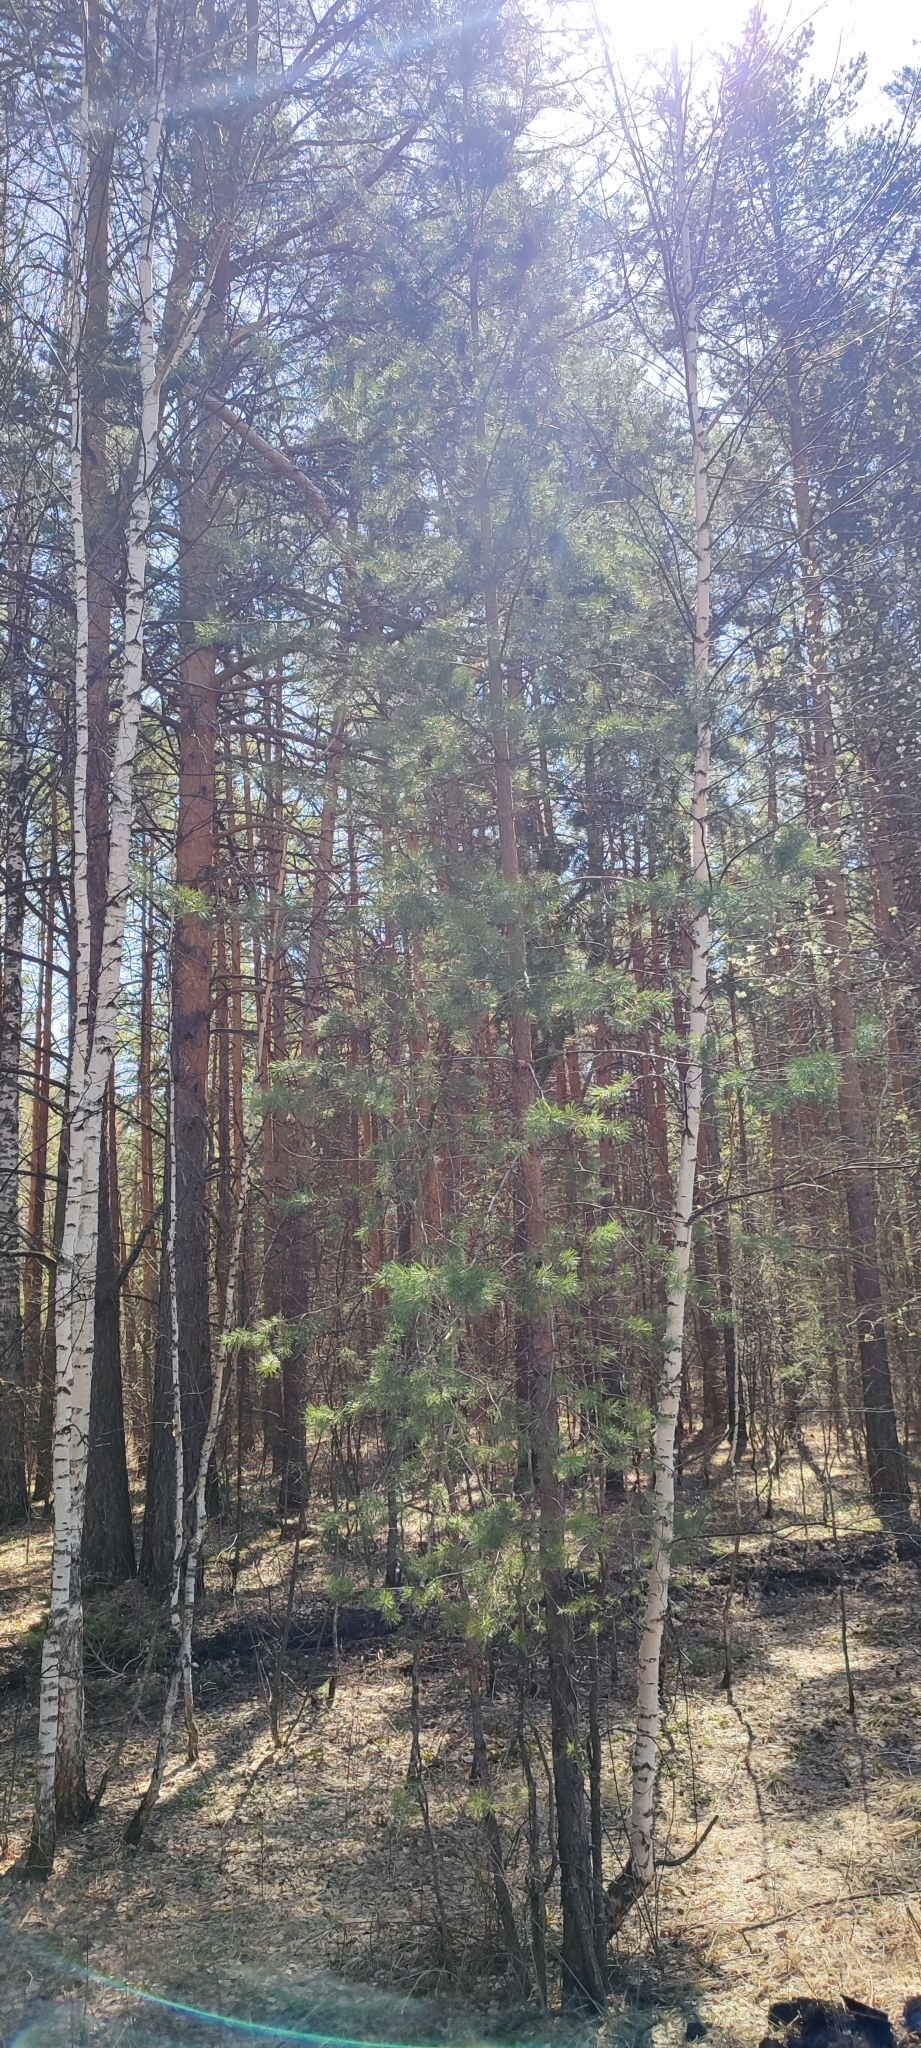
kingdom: Plantae
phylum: Tracheophyta
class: Pinopsida
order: Pinales
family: Pinaceae
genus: Pinus
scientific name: Pinus sylvestris
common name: Scots pine
